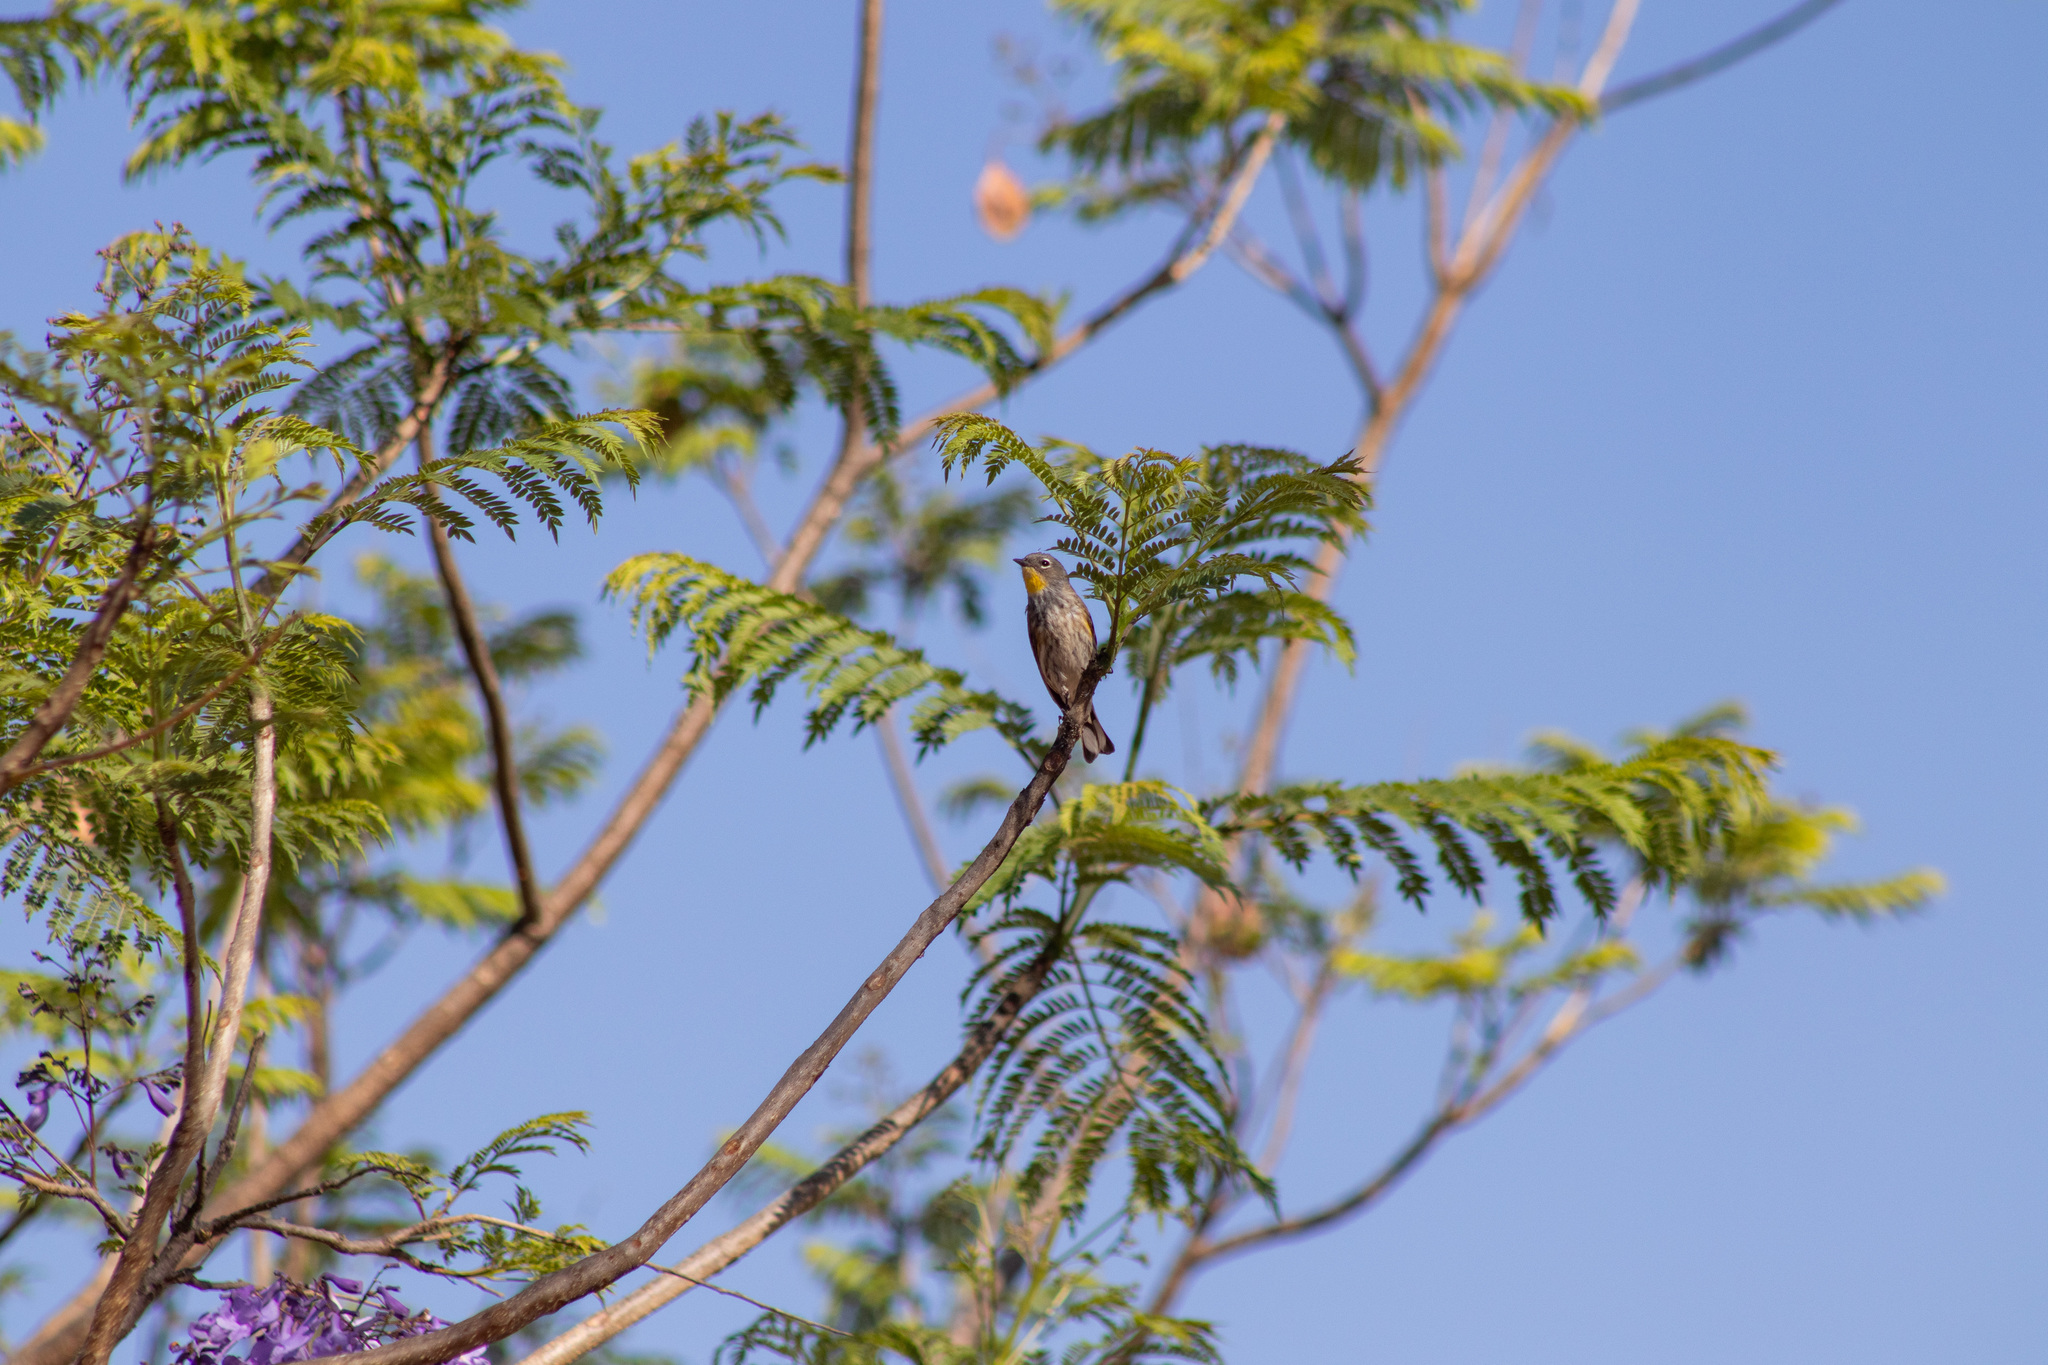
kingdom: Animalia
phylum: Chordata
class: Aves
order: Passeriformes
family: Parulidae
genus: Setophaga
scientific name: Setophaga auduboni
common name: Audubon's warbler
